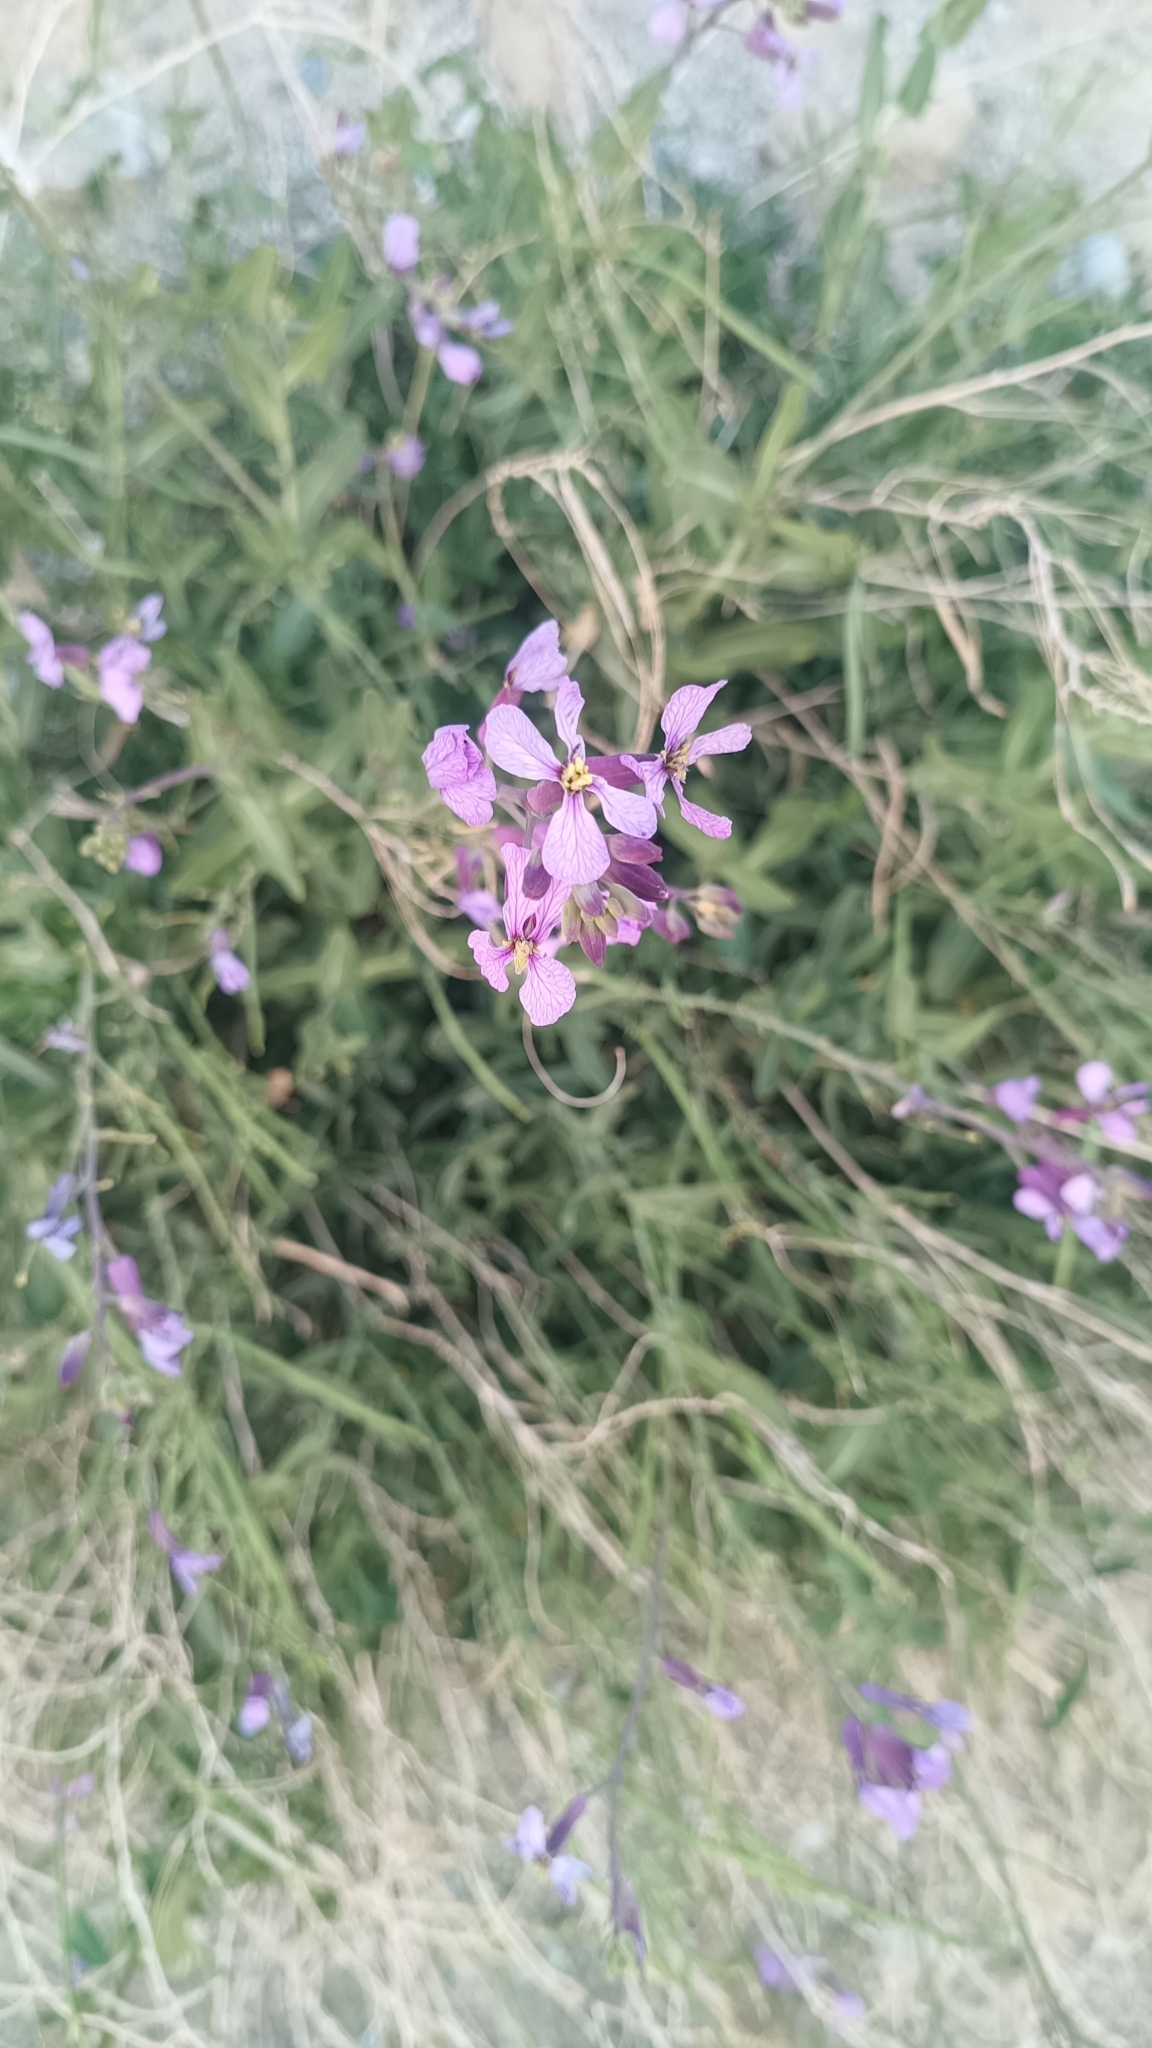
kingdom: Plantae
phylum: Tracheophyta
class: Magnoliopsida
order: Brassicales
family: Brassicaceae
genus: Moricandia
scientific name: Moricandia arvensis
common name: Purple mistress
